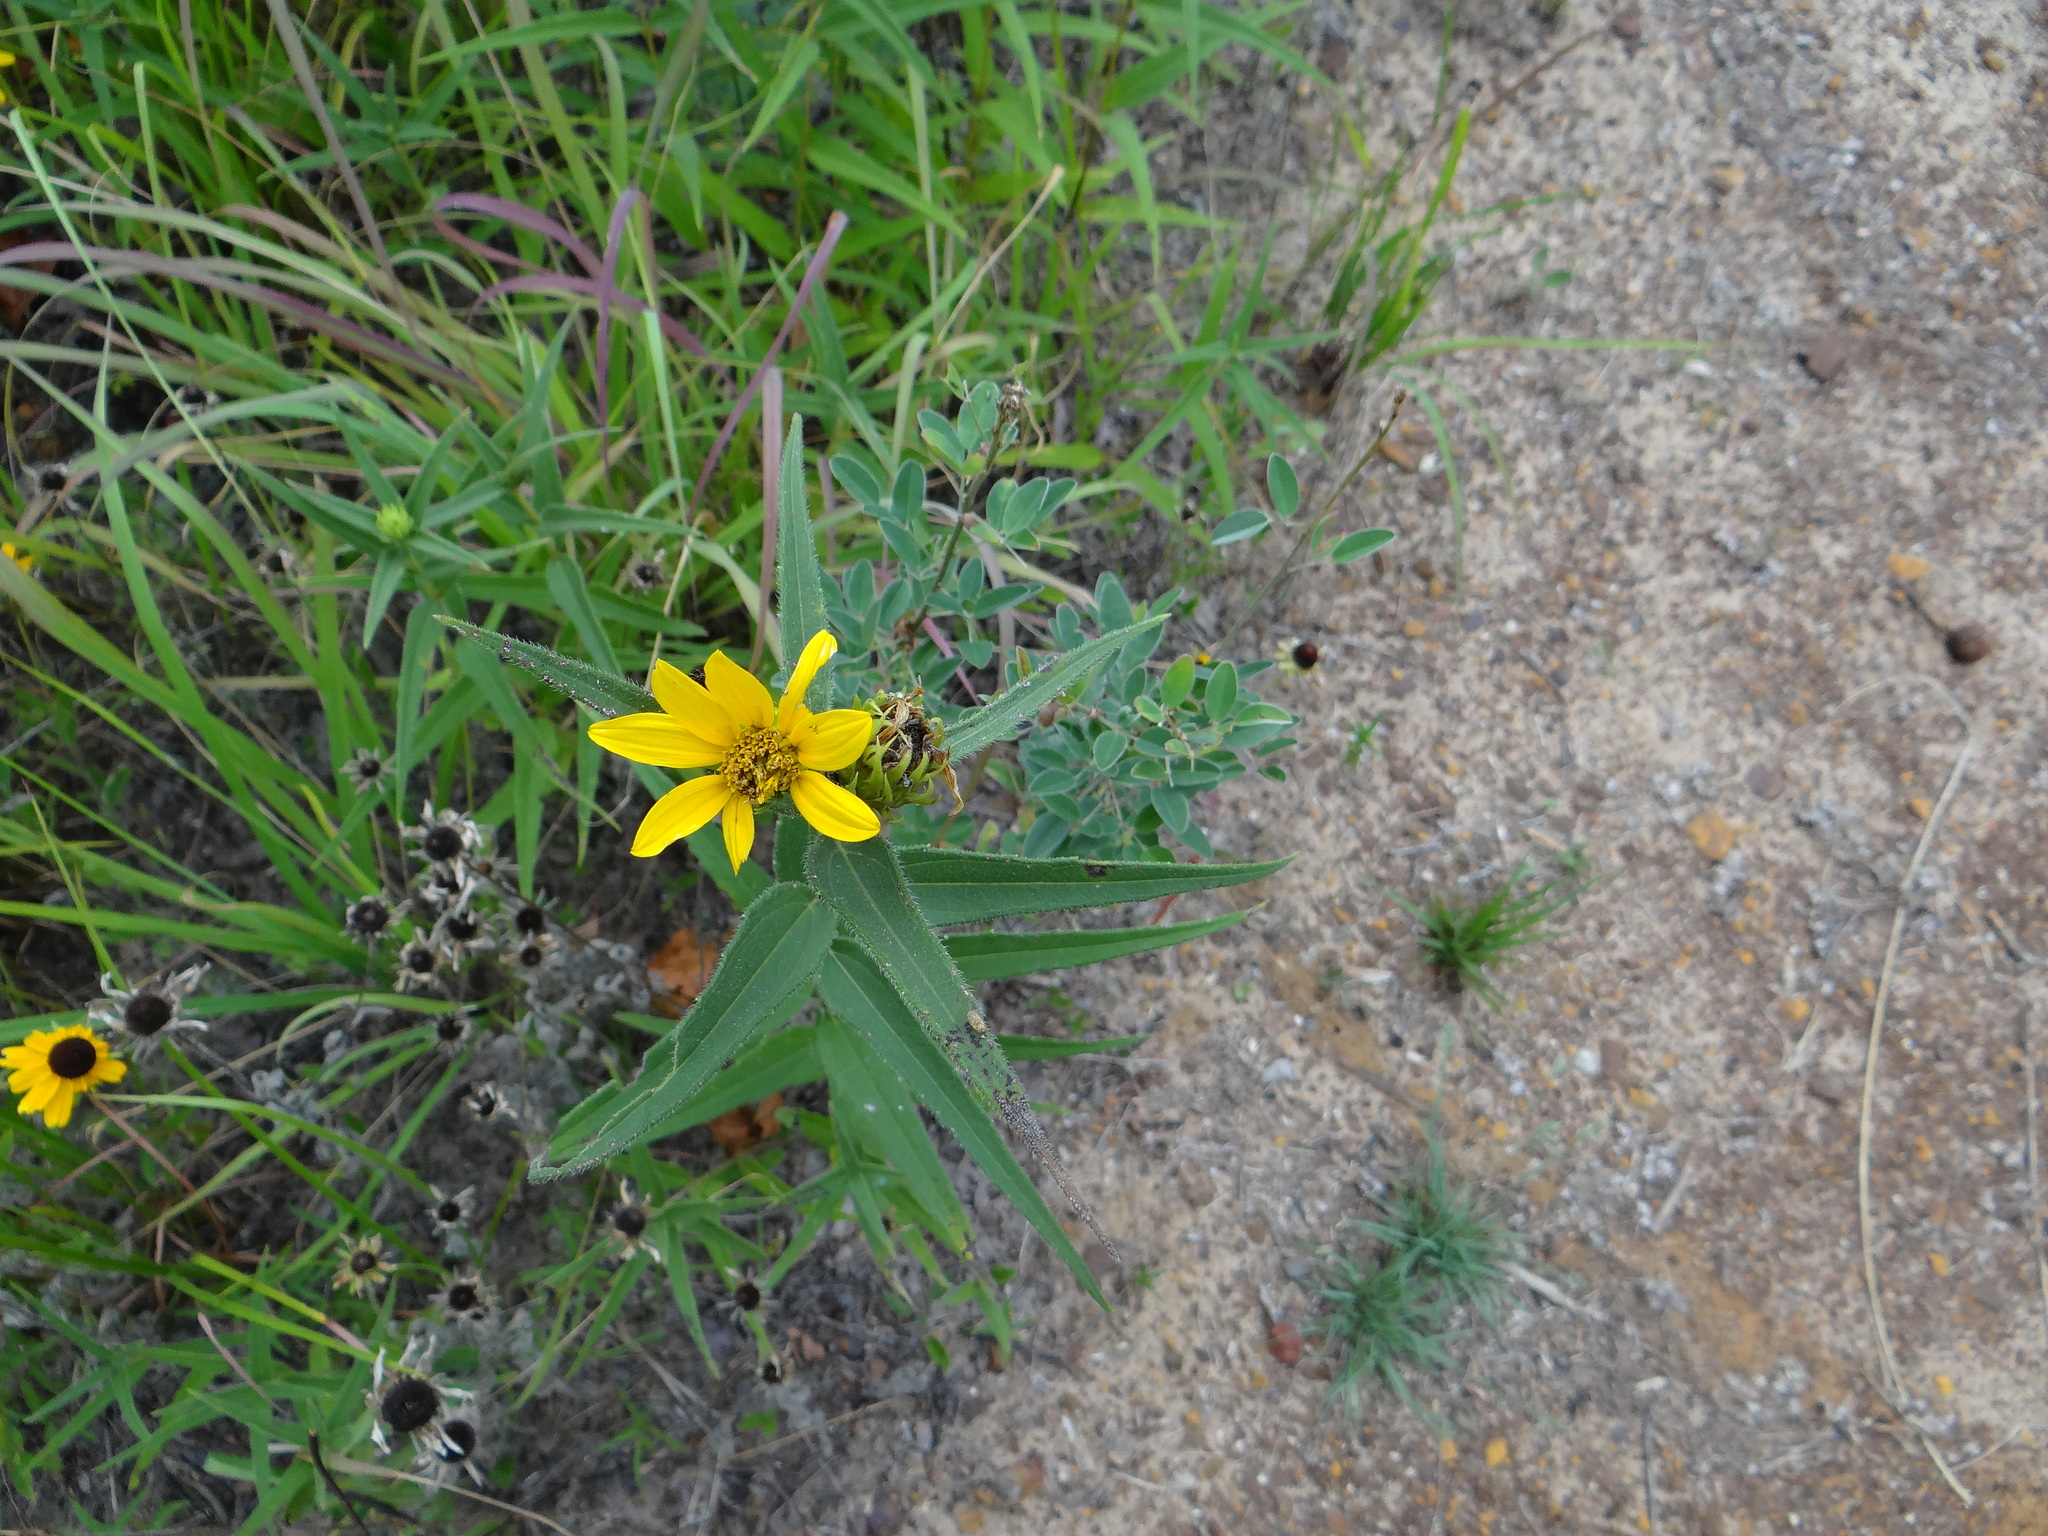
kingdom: Plantae
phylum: Tracheophyta
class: Magnoliopsida
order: Asterales
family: Asteraceae
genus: Helianthus
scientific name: Helianthus hirsutus
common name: Hairy sunflower
